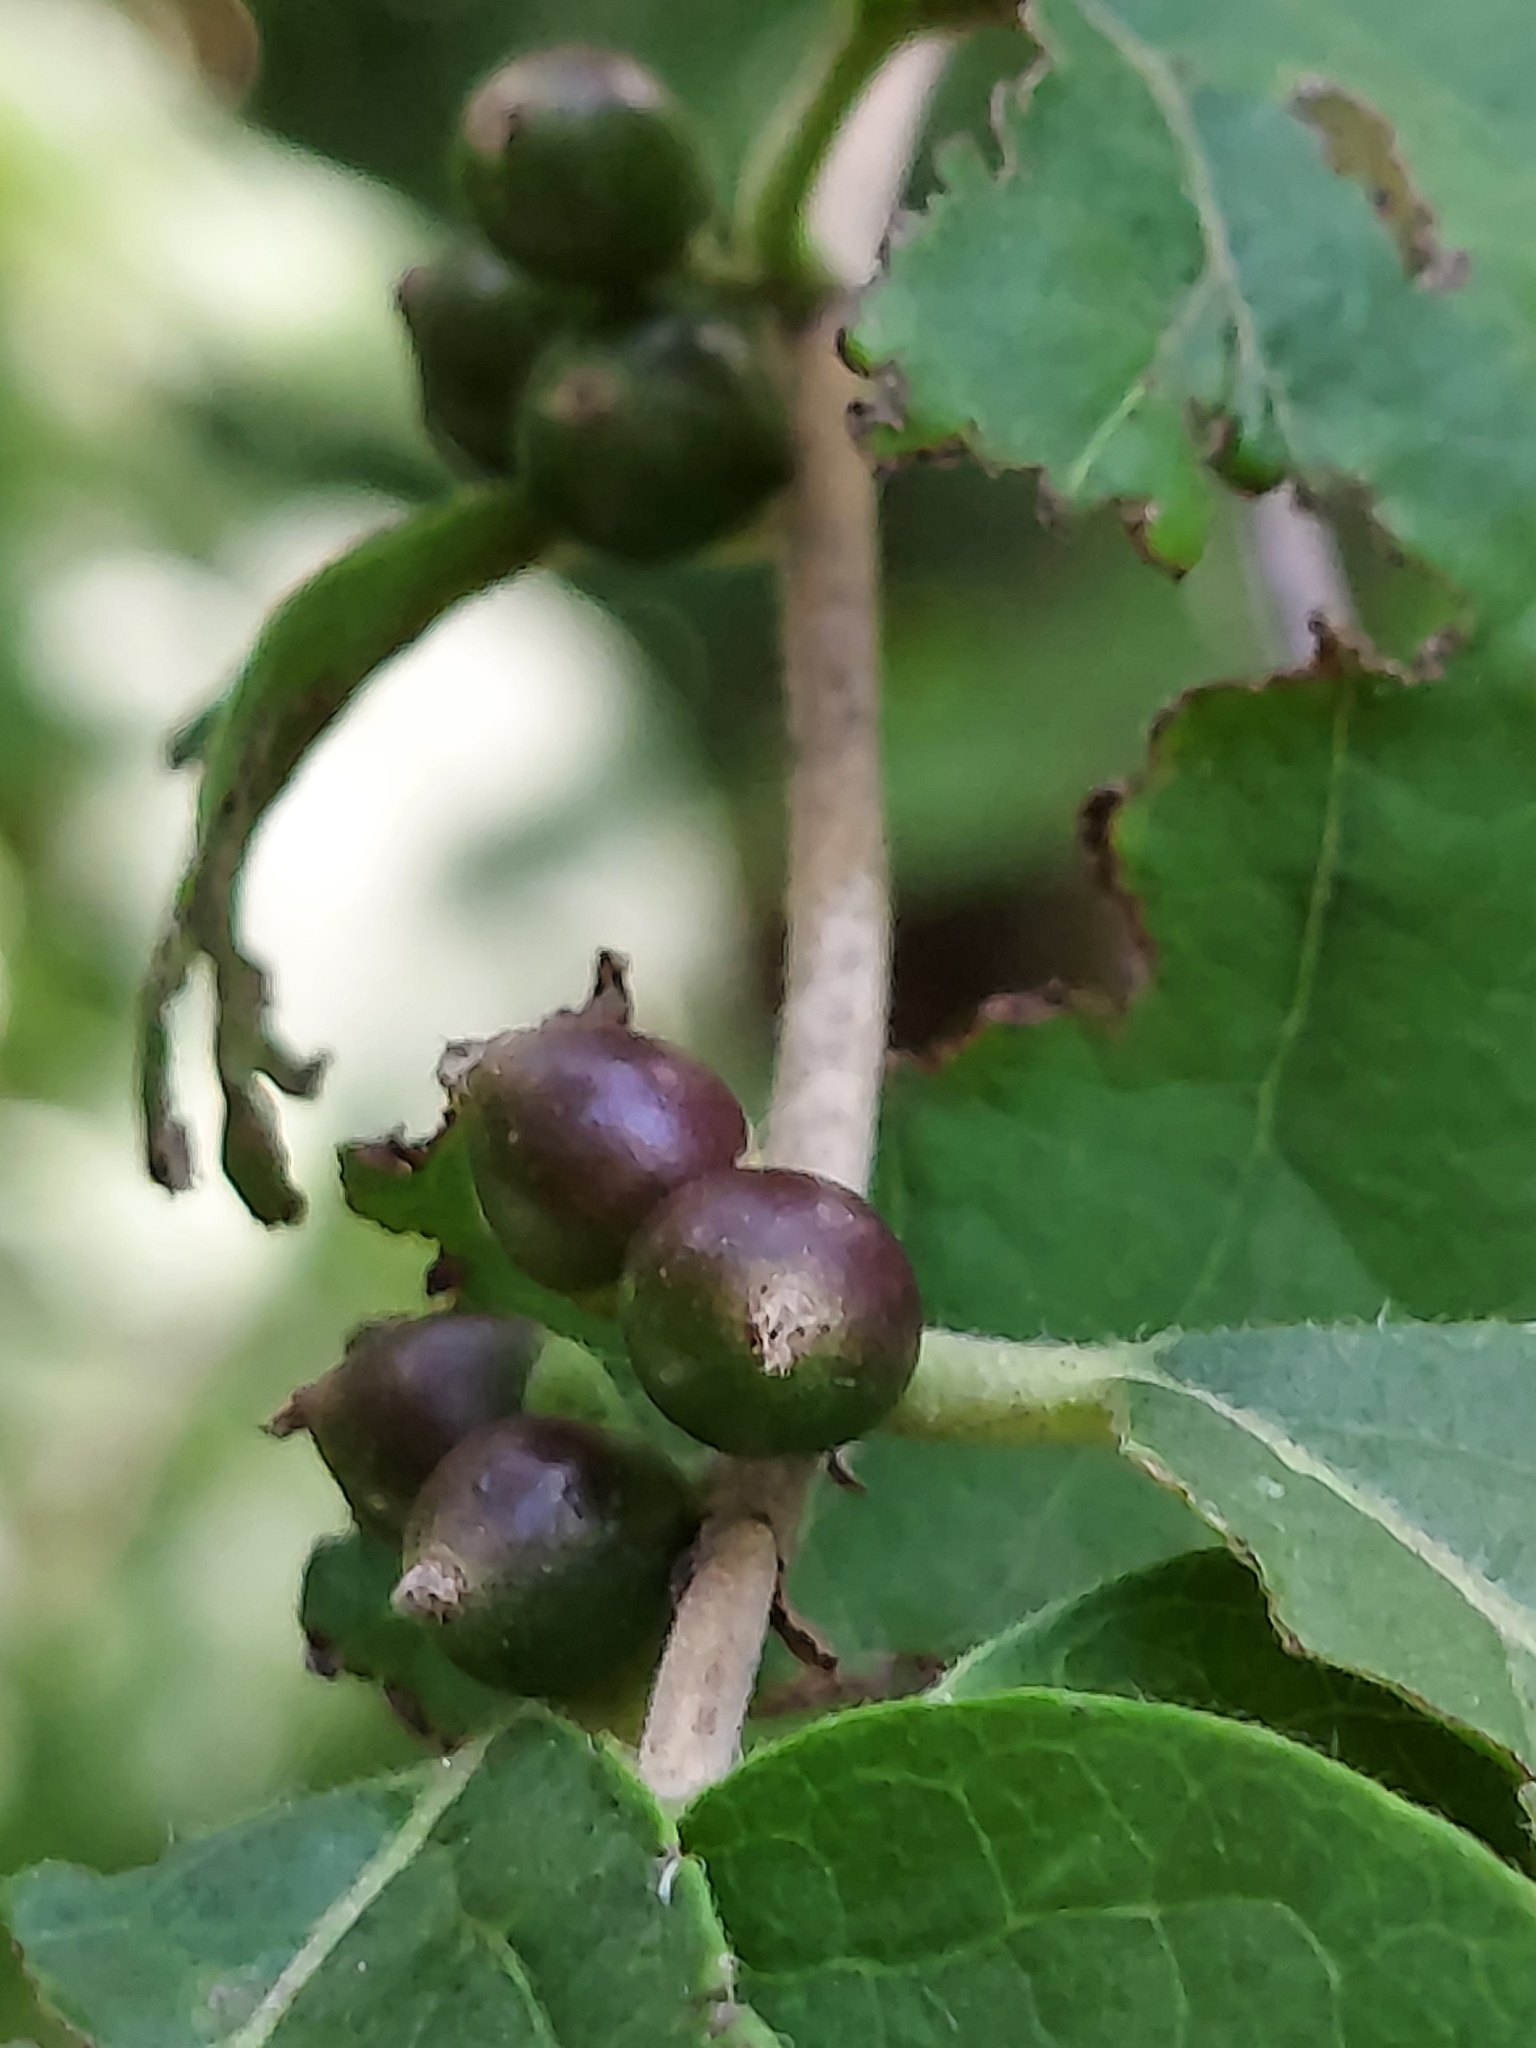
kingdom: Plantae
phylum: Tracheophyta
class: Magnoliopsida
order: Dipsacales
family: Caprifoliaceae
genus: Lonicera
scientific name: Lonicera maackii
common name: Amur honeysuckle
